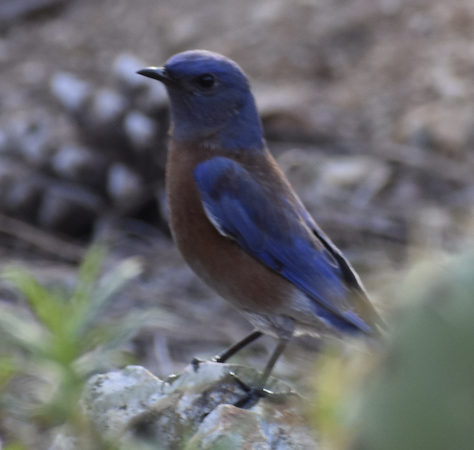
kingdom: Animalia
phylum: Chordata
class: Aves
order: Passeriformes
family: Turdidae
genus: Sialia
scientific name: Sialia mexicana
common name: Western bluebird
